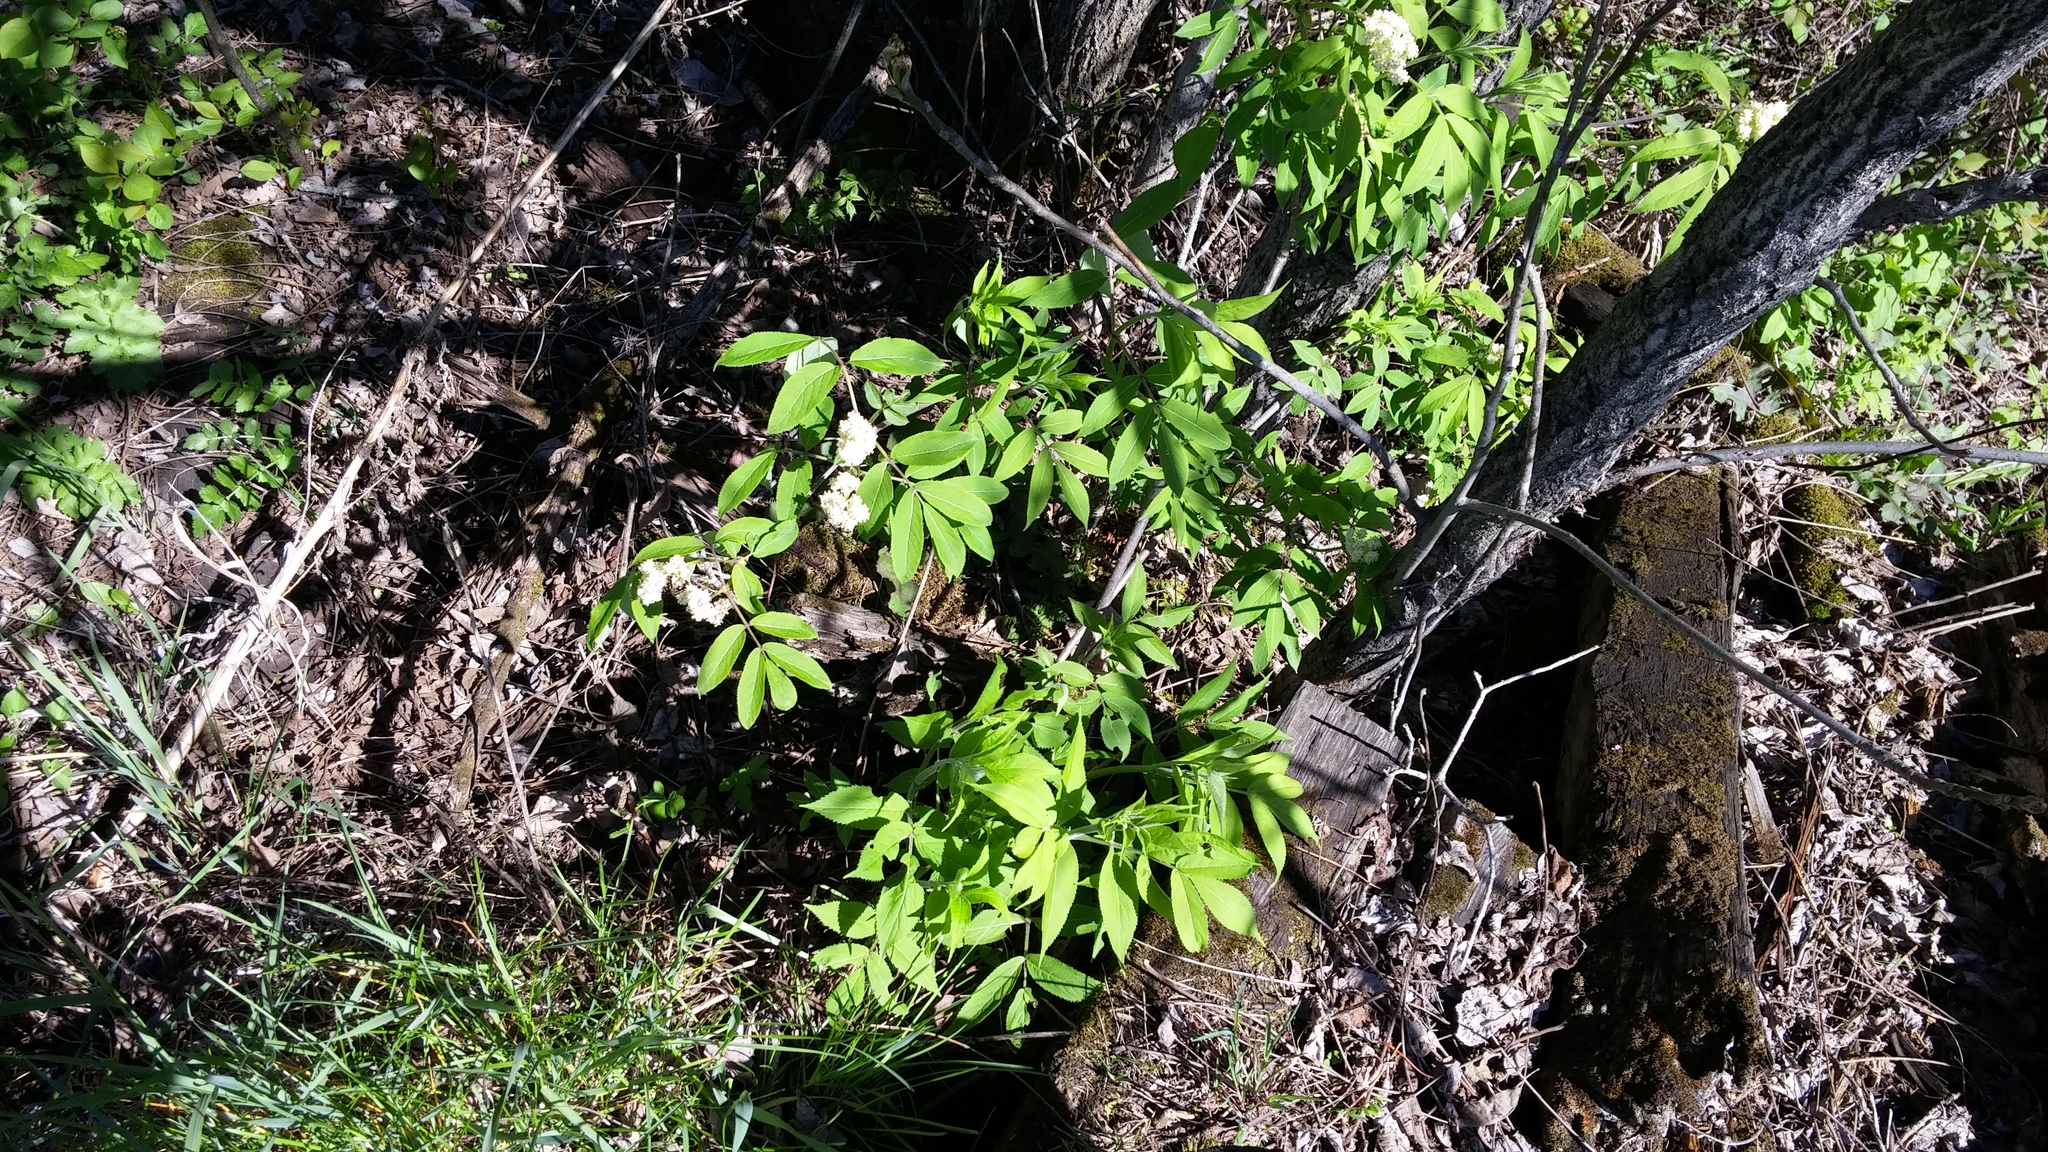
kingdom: Plantae
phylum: Tracheophyta
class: Magnoliopsida
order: Dipsacales
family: Viburnaceae
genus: Sambucus
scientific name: Sambucus racemosa
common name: Red-berried elder
